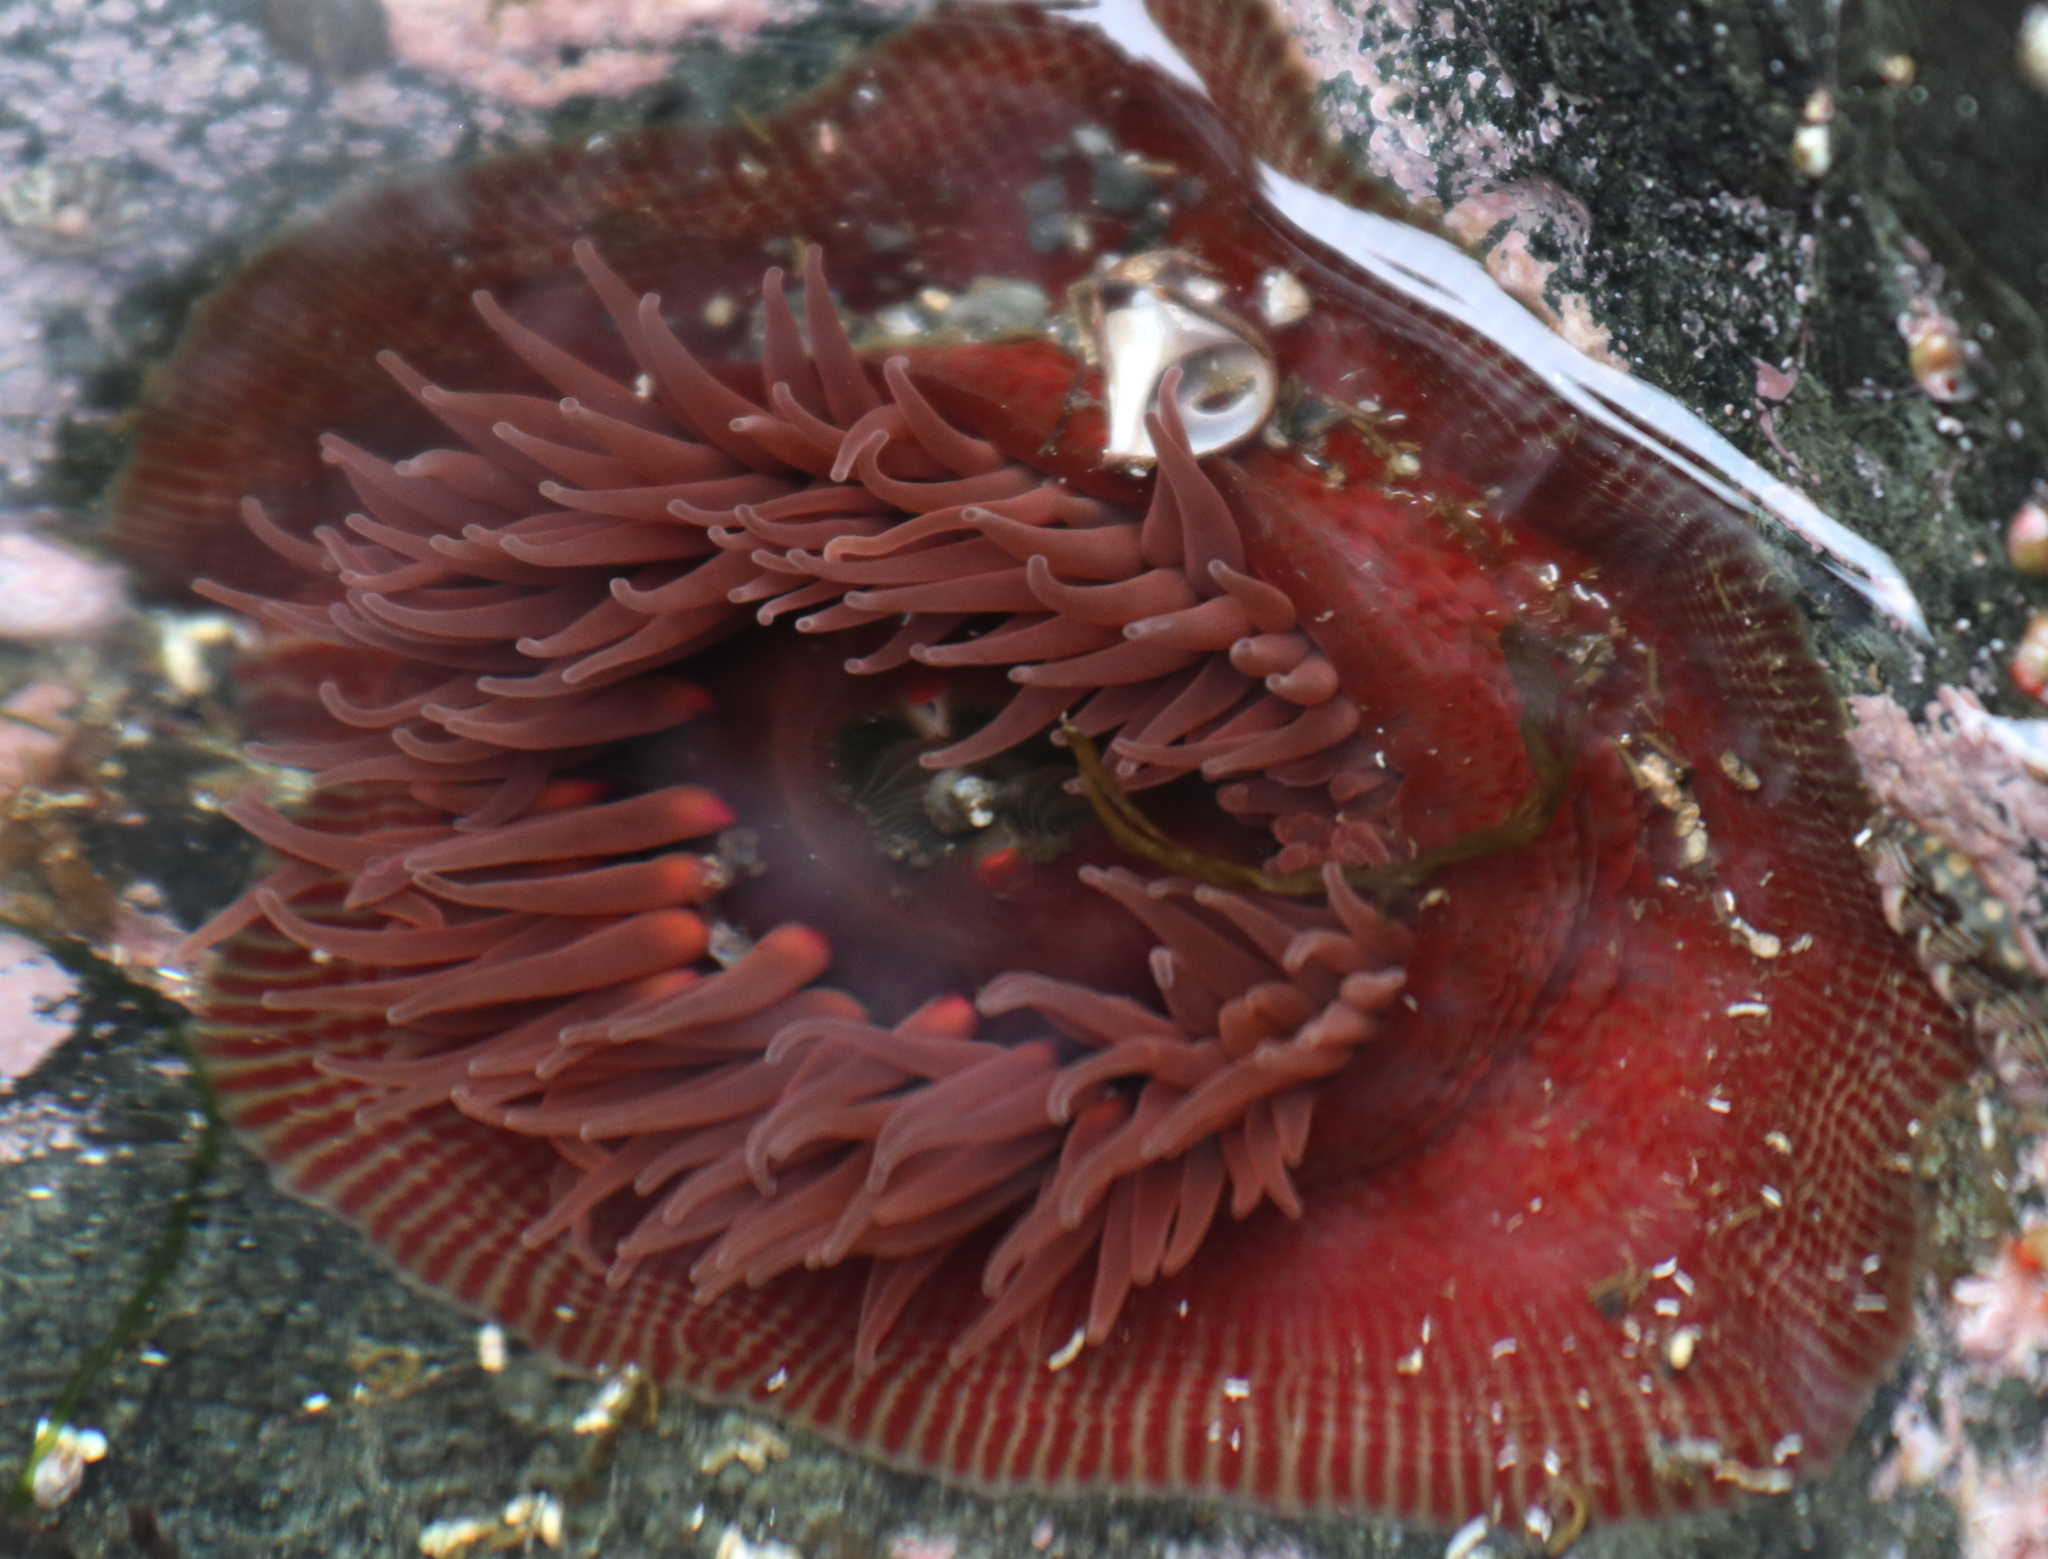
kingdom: Animalia
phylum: Cnidaria
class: Anthozoa
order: Actiniaria
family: Actiniidae
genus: Epiactis
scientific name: Epiactis lisbethae
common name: Giant brooding anemone
